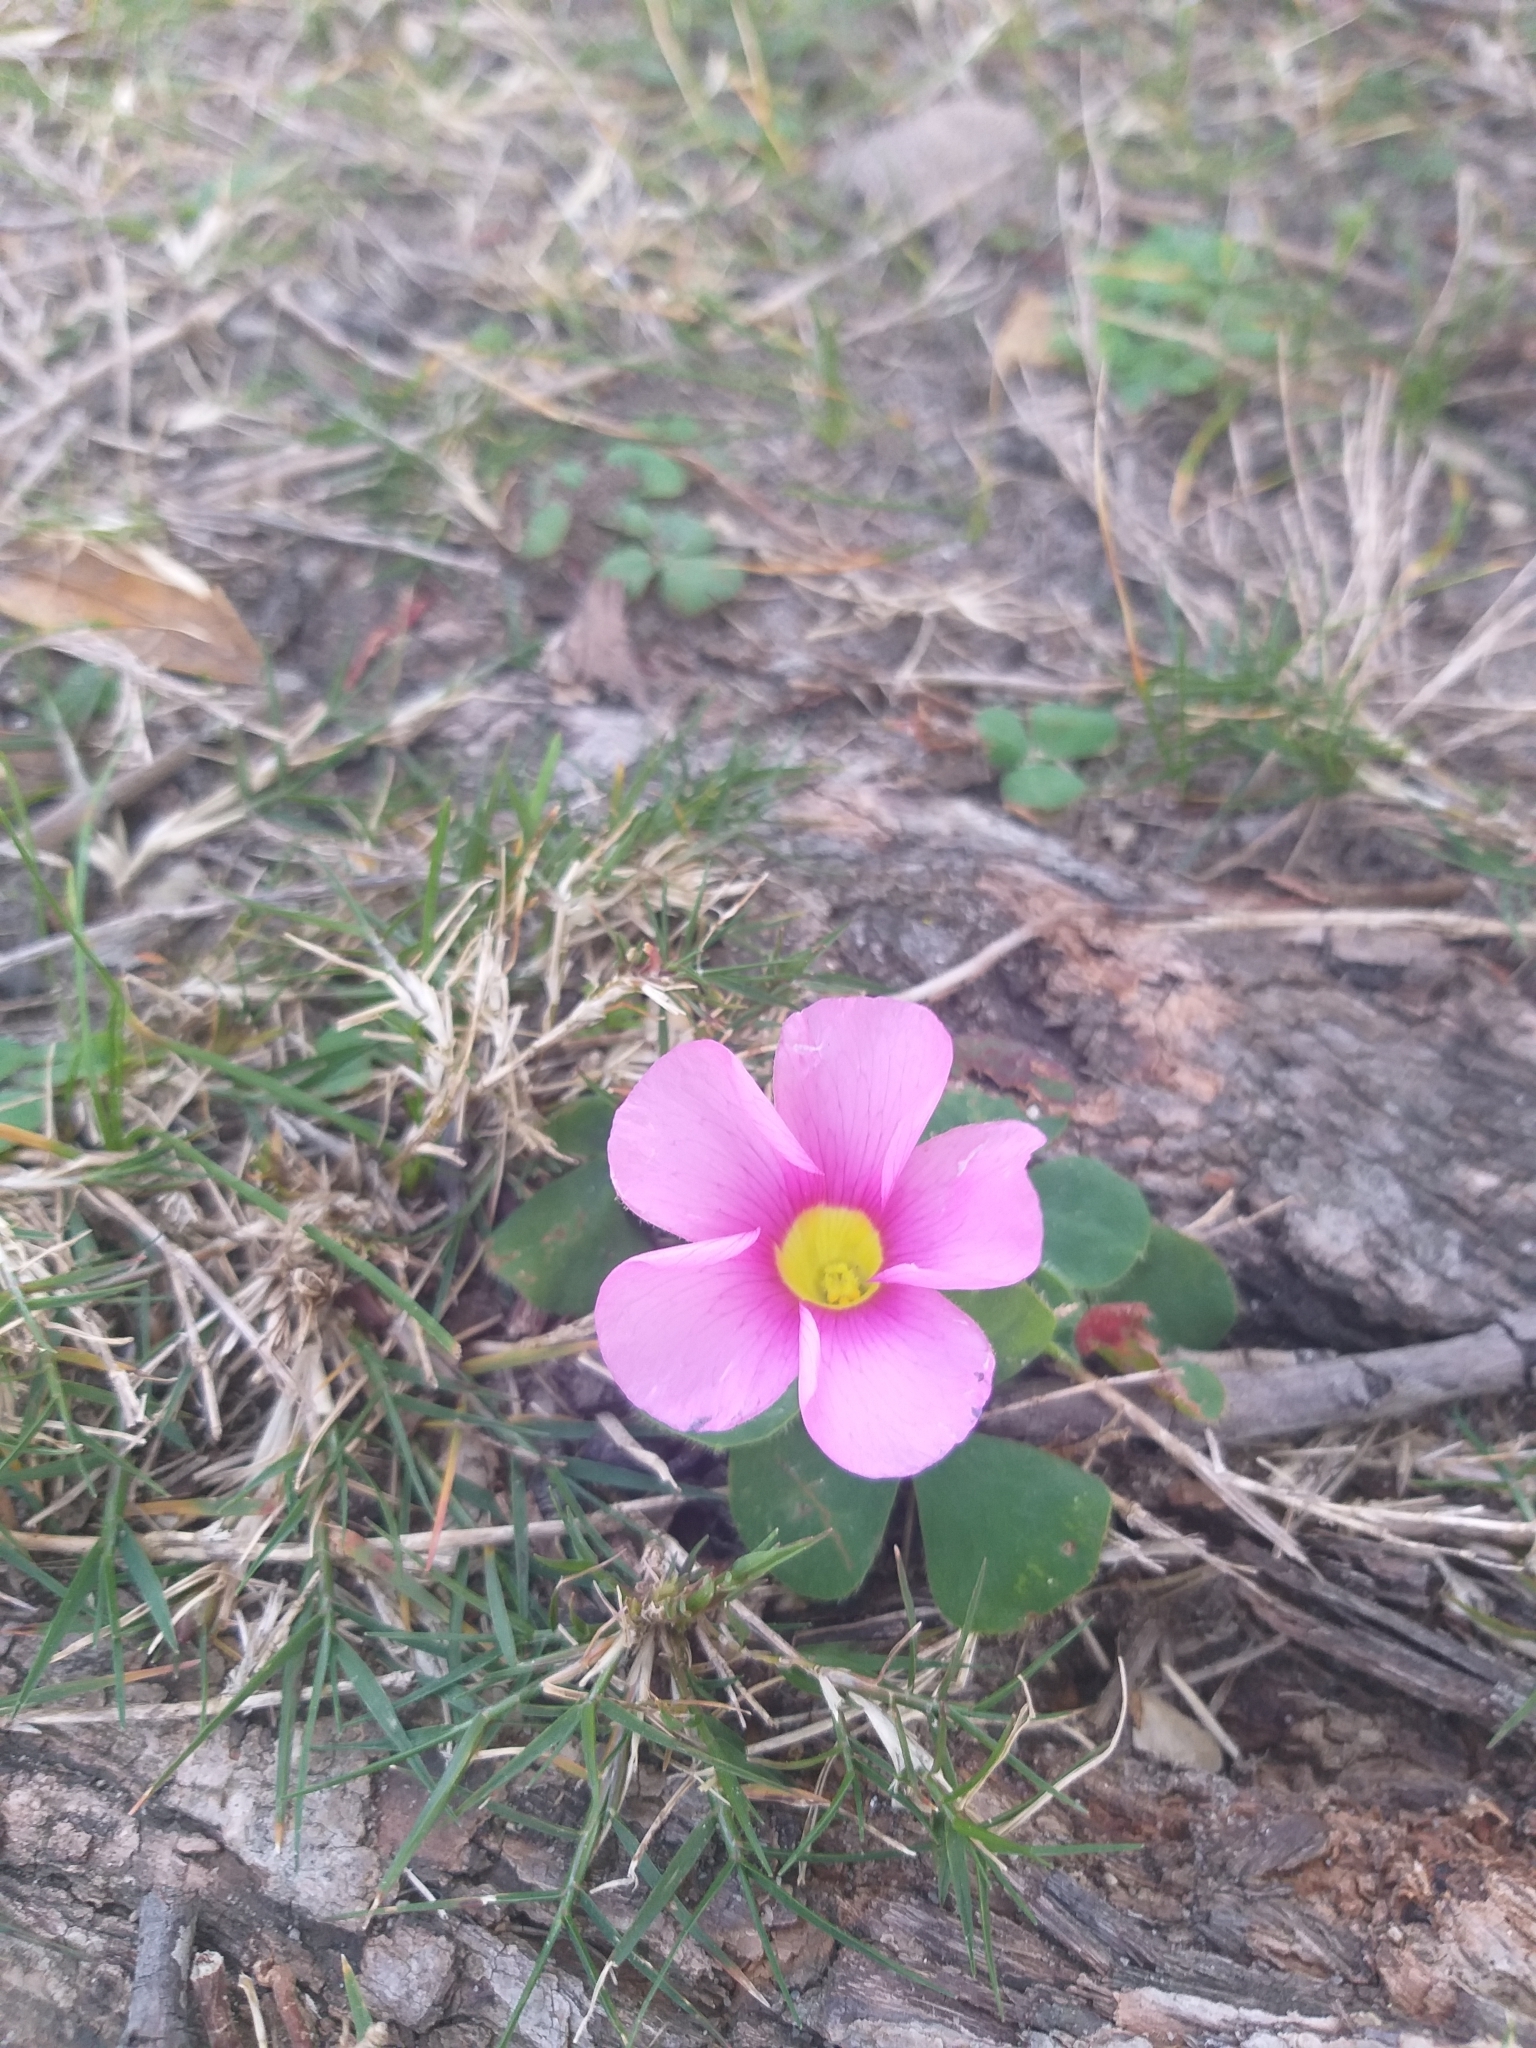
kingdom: Plantae
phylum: Tracheophyta
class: Magnoliopsida
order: Oxalidales
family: Oxalidaceae
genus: Oxalis
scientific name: Oxalis purpurea
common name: Purple woodsorrel
